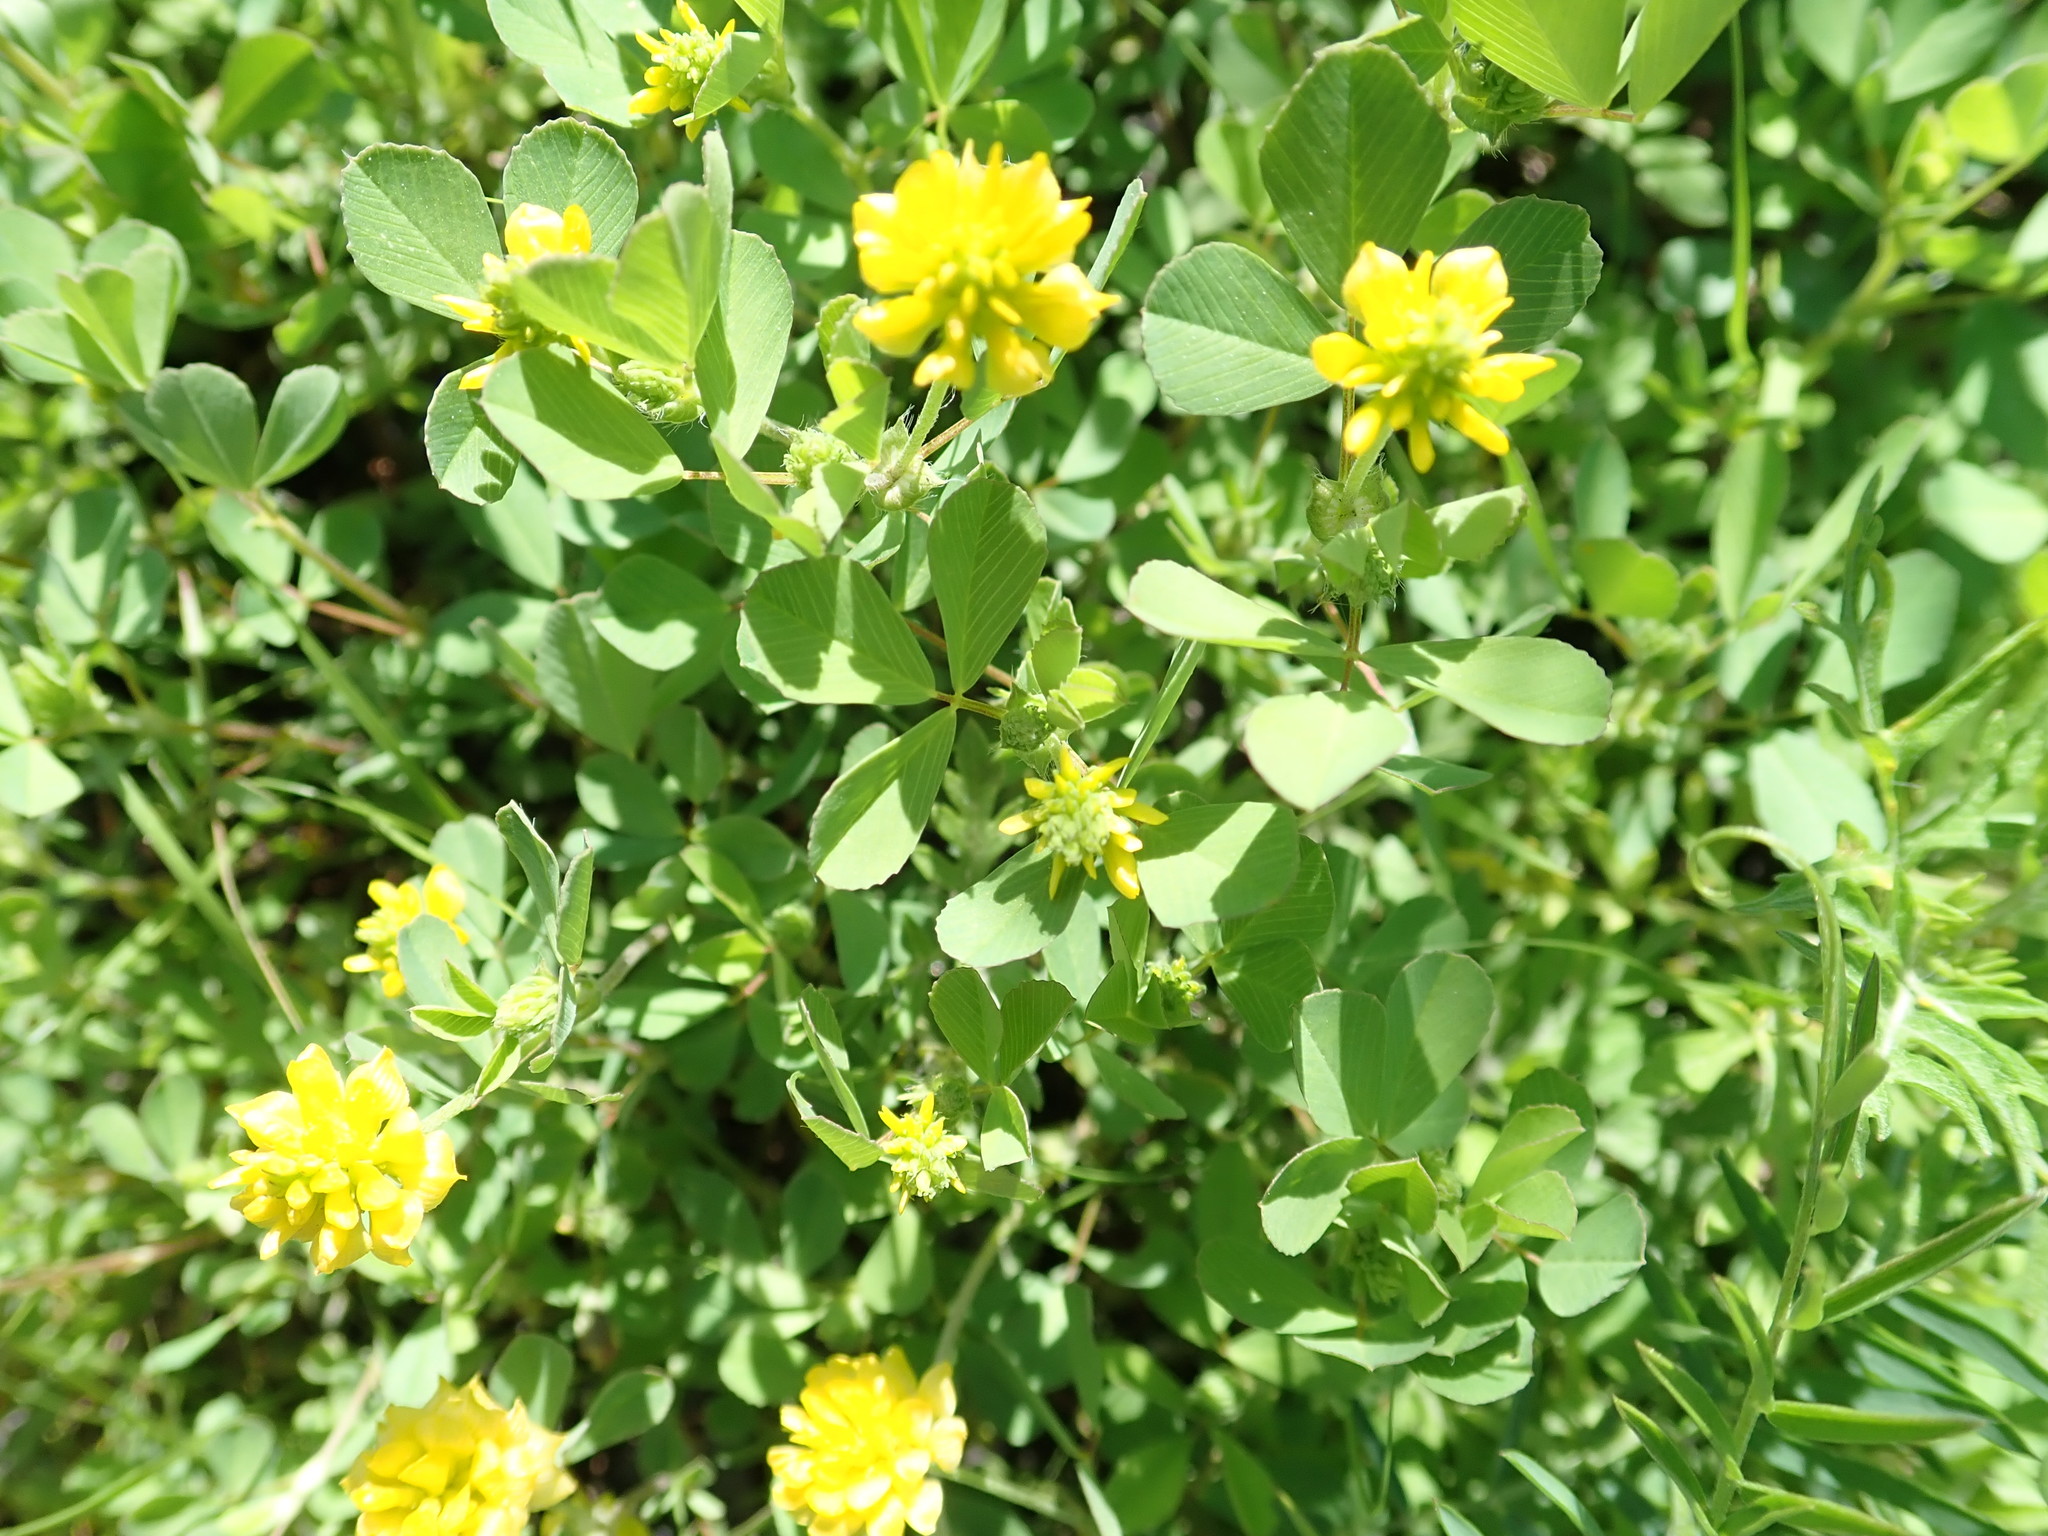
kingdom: Plantae
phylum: Tracheophyta
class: Magnoliopsida
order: Fabales
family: Fabaceae
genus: Trifolium
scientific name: Trifolium campestre
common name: Field clover
